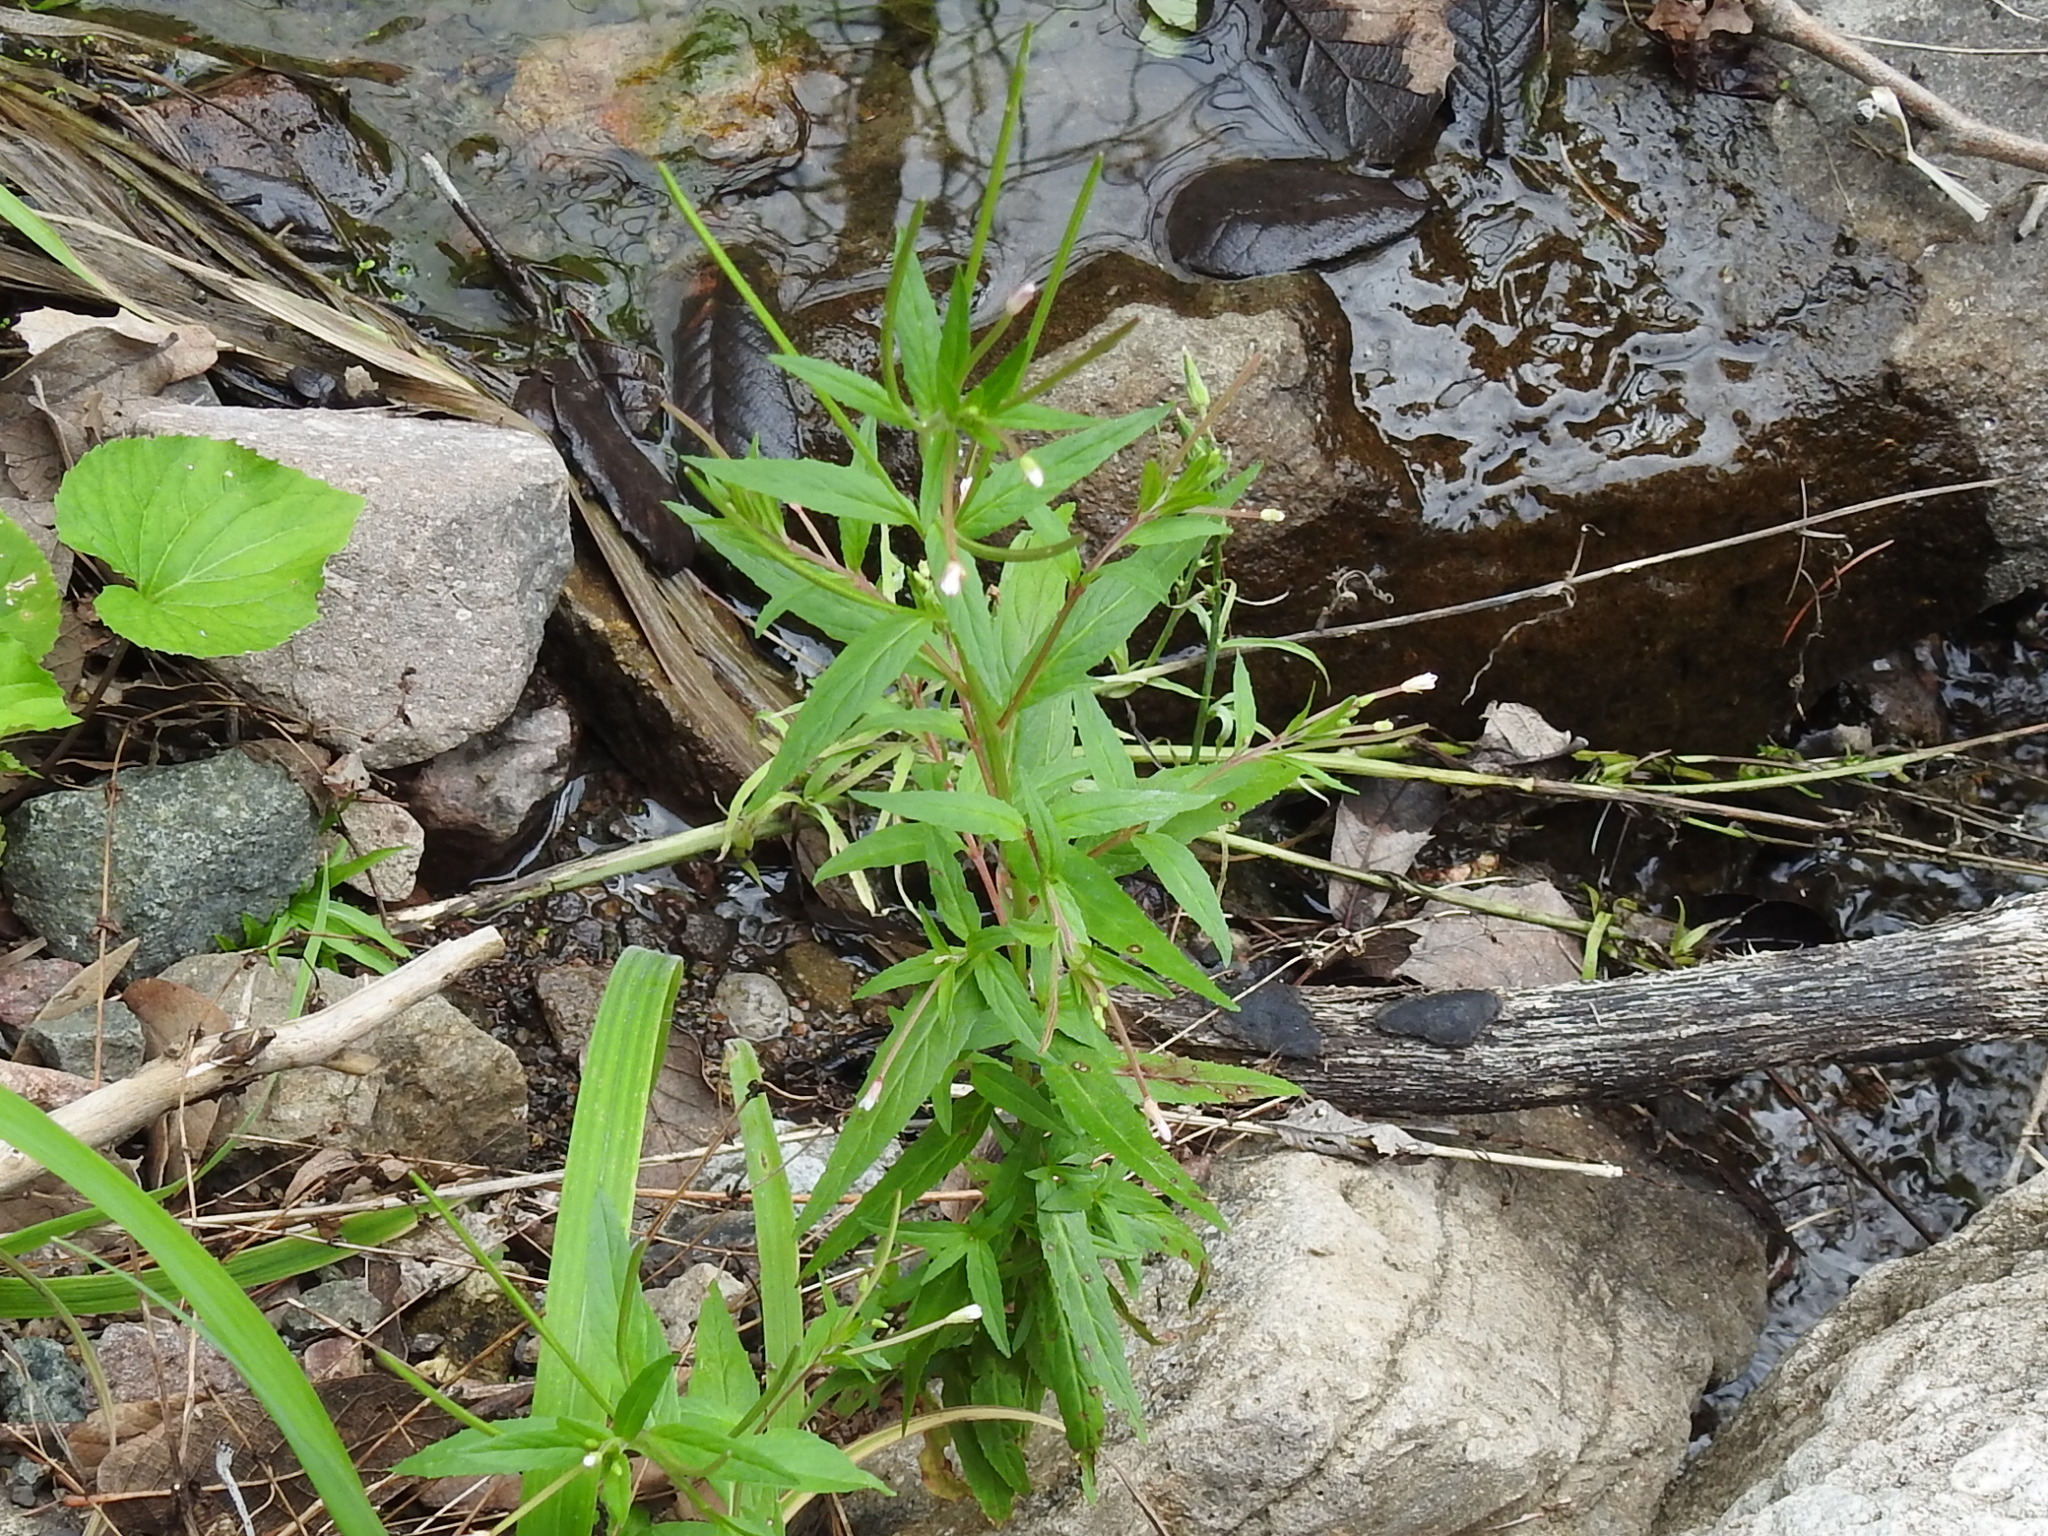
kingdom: Plantae
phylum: Tracheophyta
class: Magnoliopsida
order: Myrtales
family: Onagraceae
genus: Epilobium
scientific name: Epilobium ciliatum
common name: American willowherb
